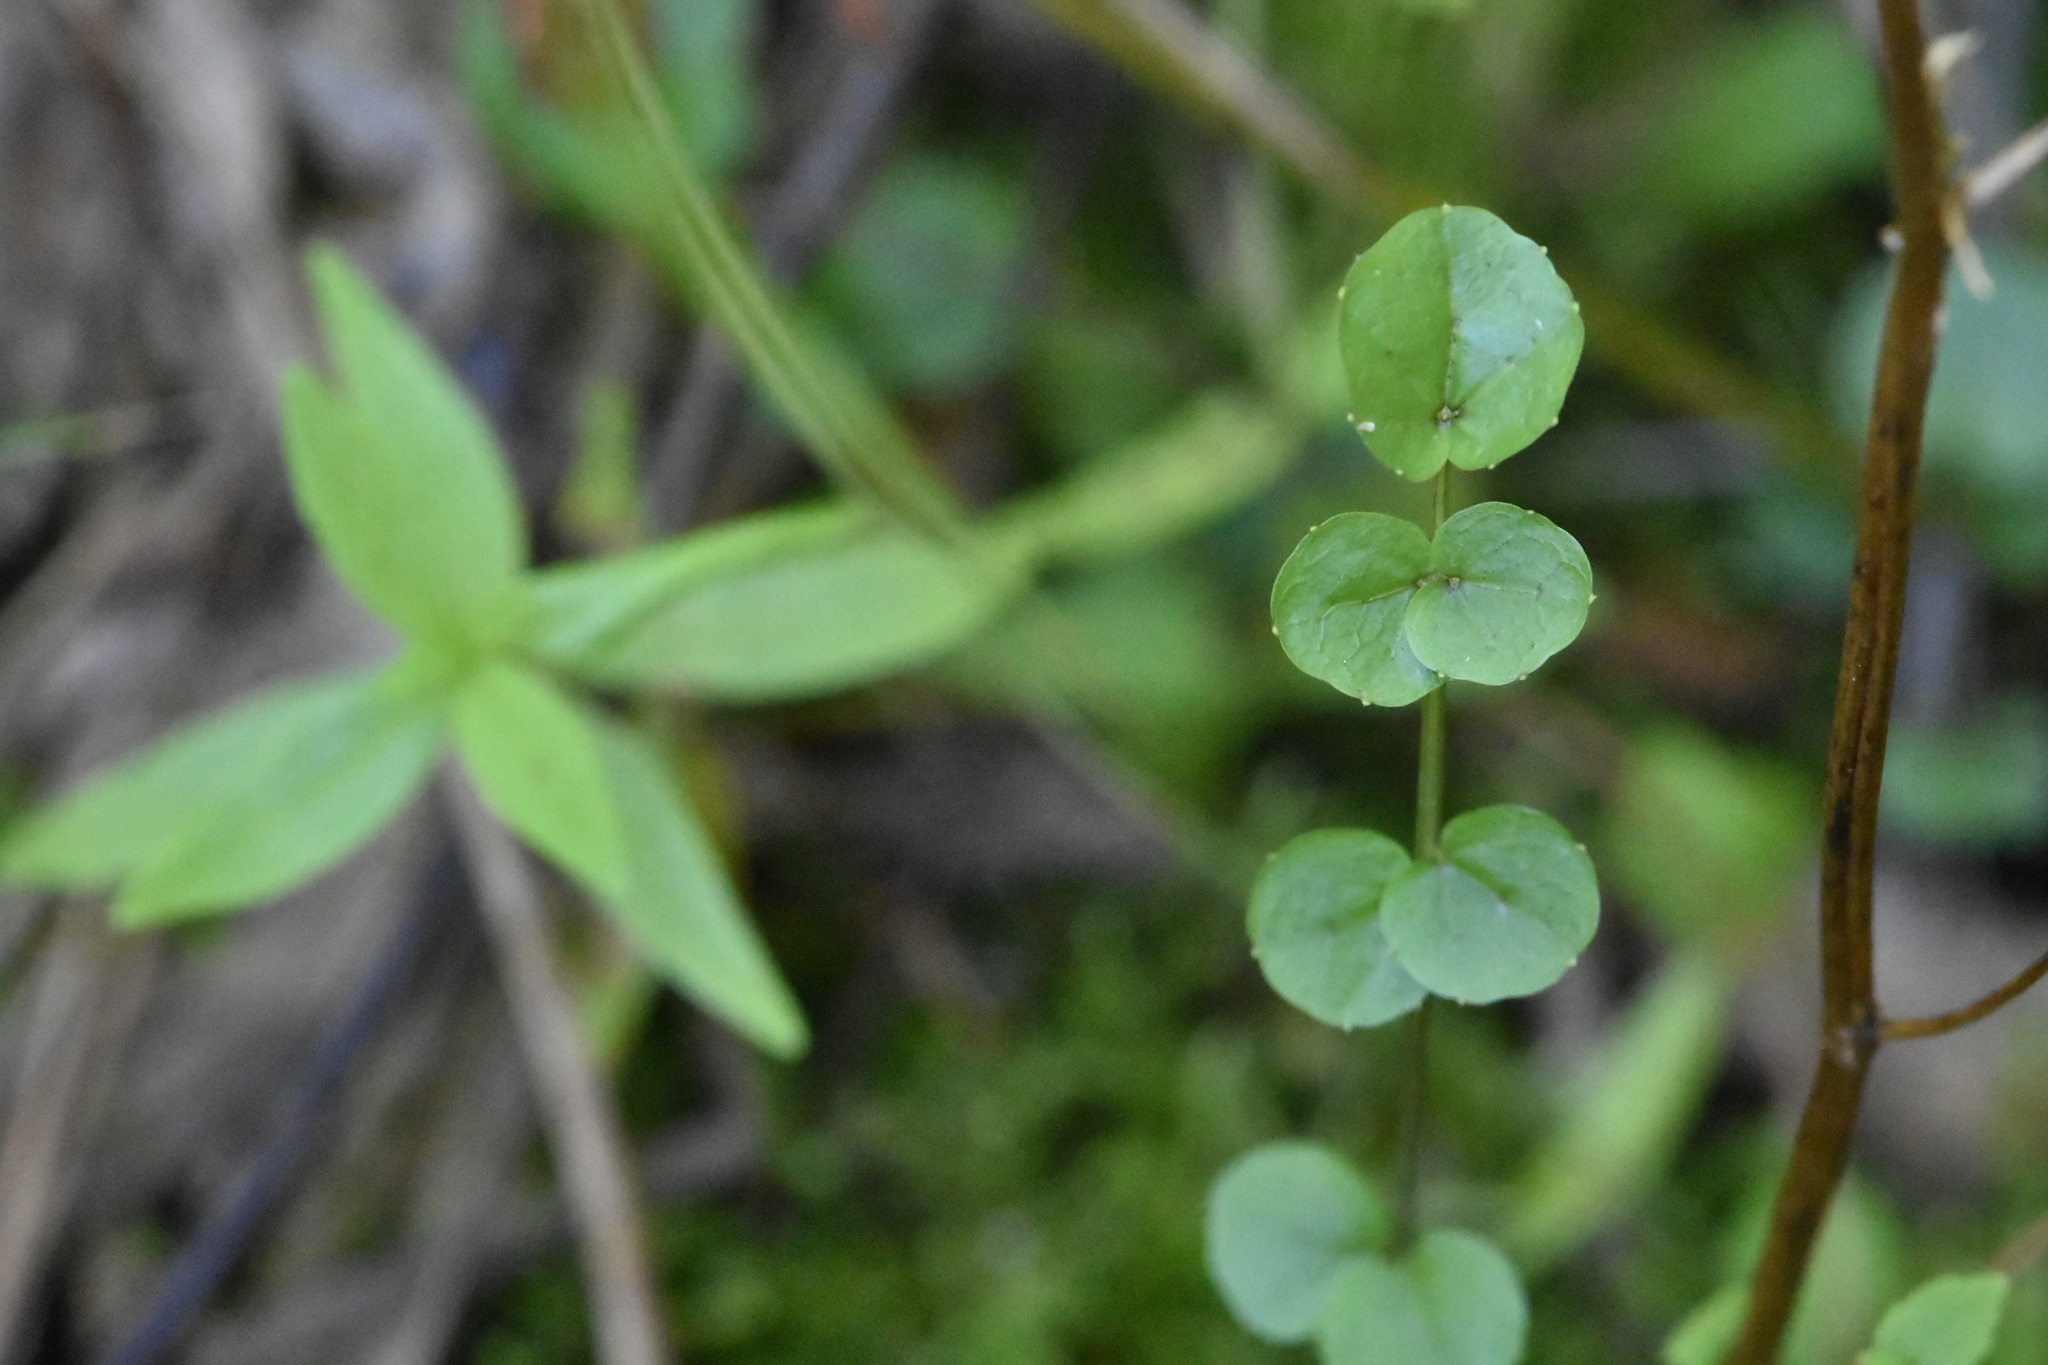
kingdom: Plantae
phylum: Tracheophyta
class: Magnoliopsida
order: Brassicales
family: Brassicaceae
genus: Cardamine
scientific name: Cardamine dentata
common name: Toothed bittercress
